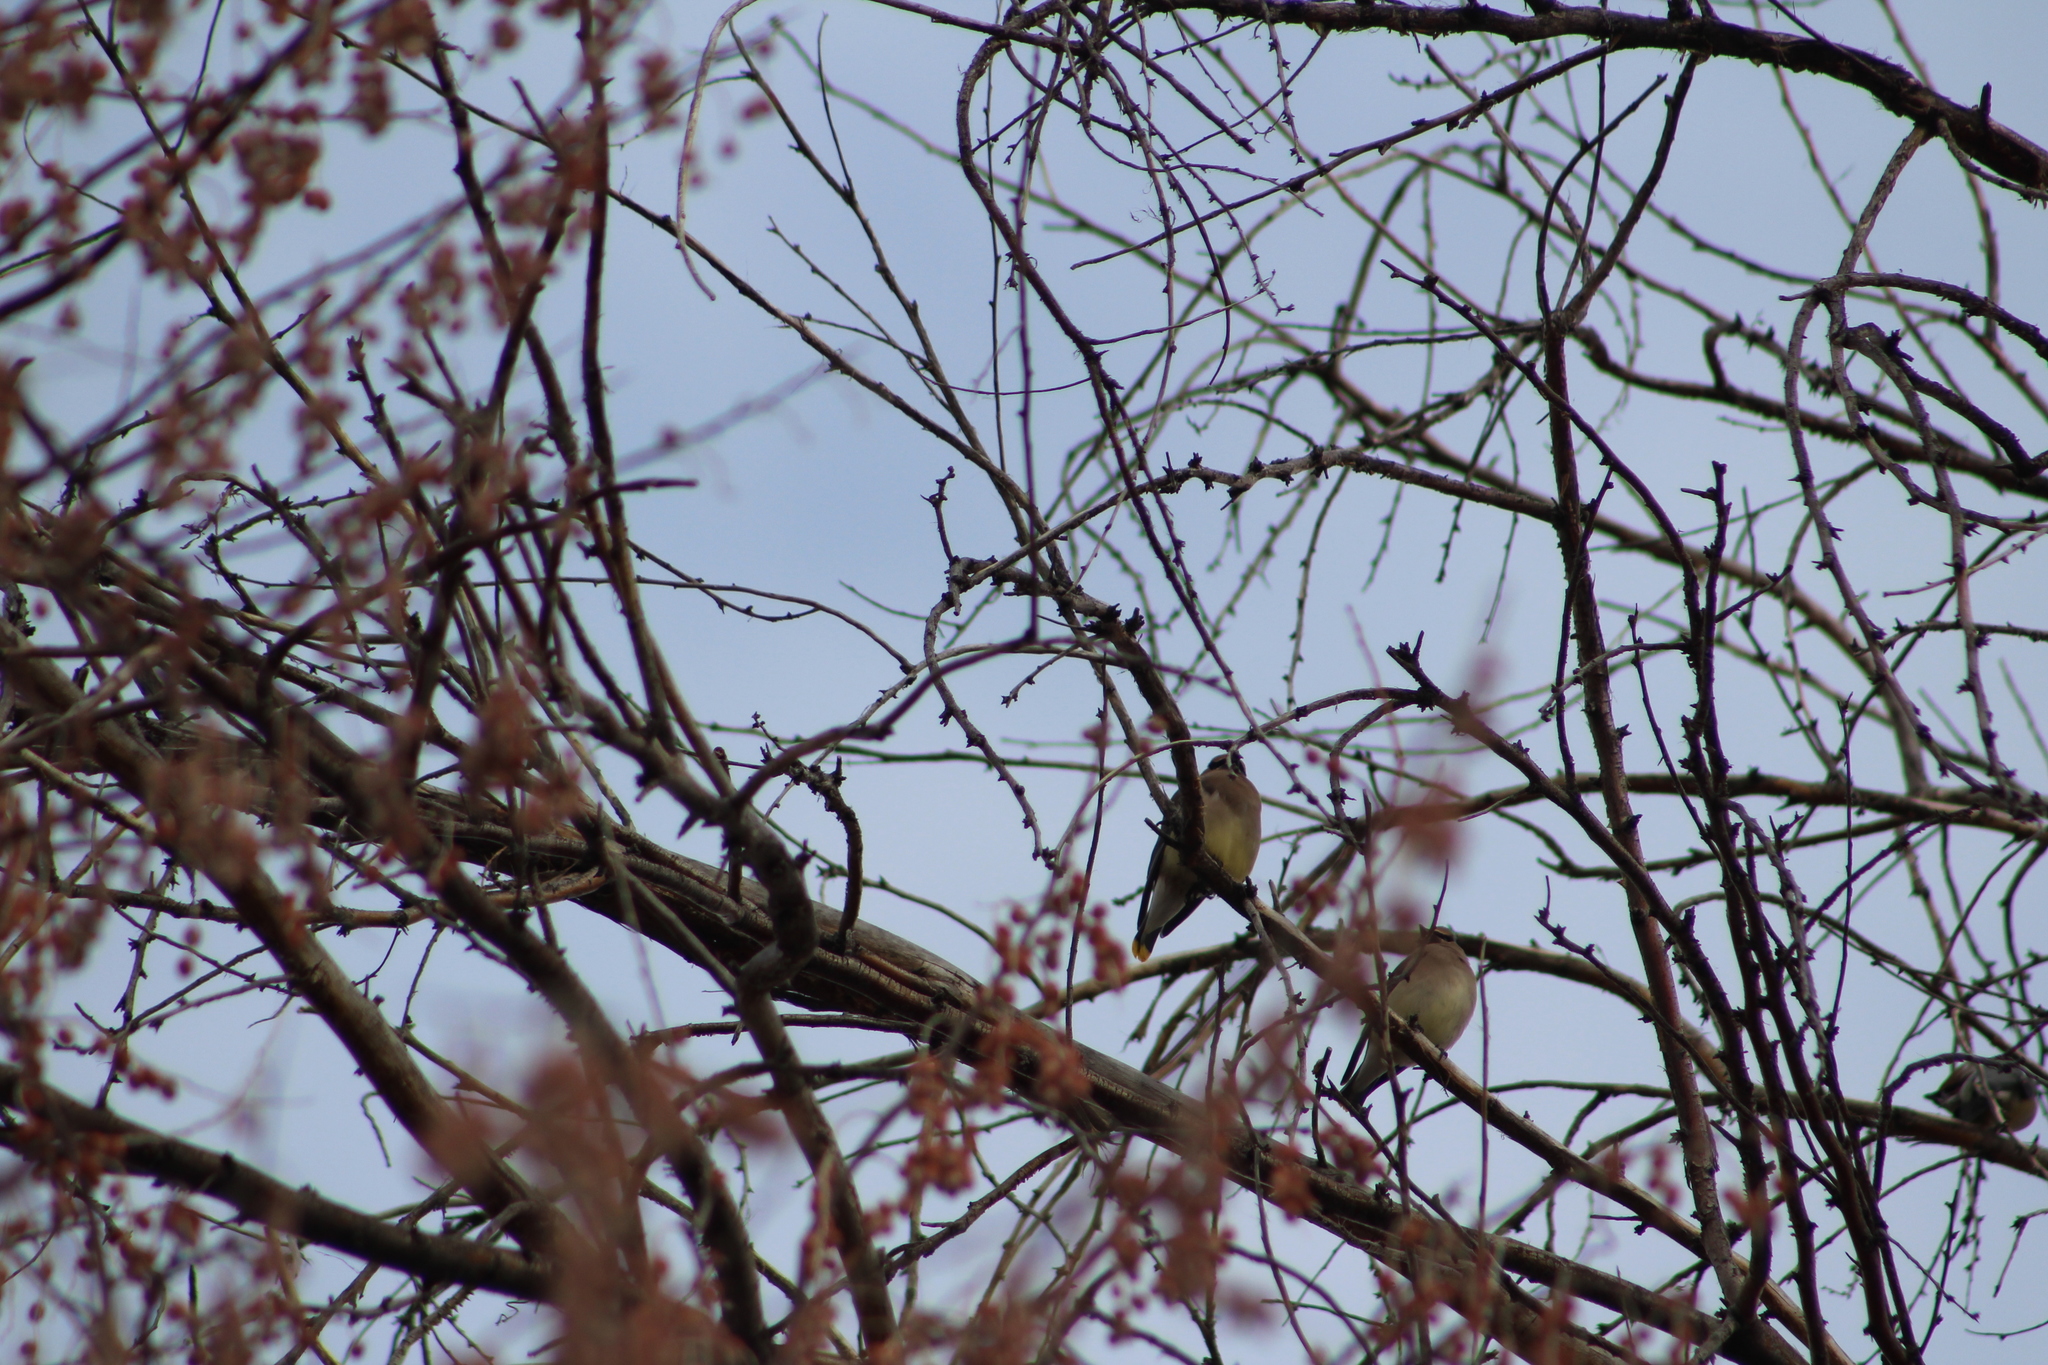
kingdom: Animalia
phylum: Chordata
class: Aves
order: Passeriformes
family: Bombycillidae
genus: Bombycilla
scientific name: Bombycilla cedrorum
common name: Cedar waxwing
